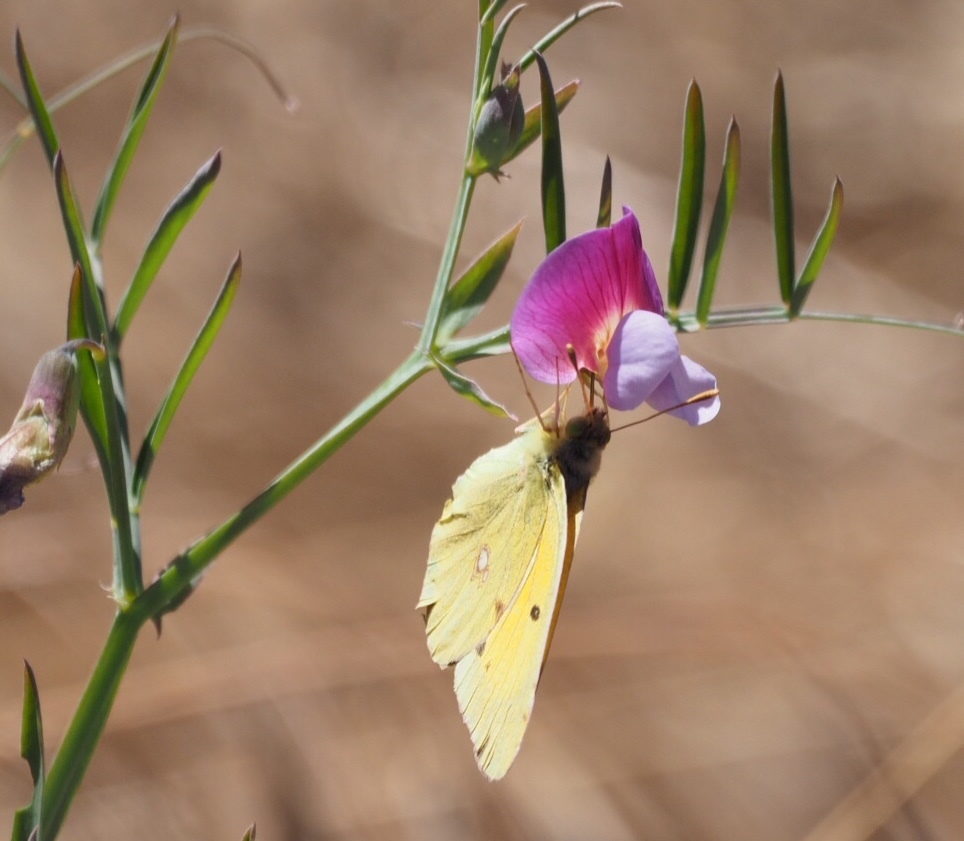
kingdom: Animalia
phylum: Arthropoda
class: Insecta
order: Lepidoptera
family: Pieridae
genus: Colias
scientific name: Colias croceus
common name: Clouded yellow
